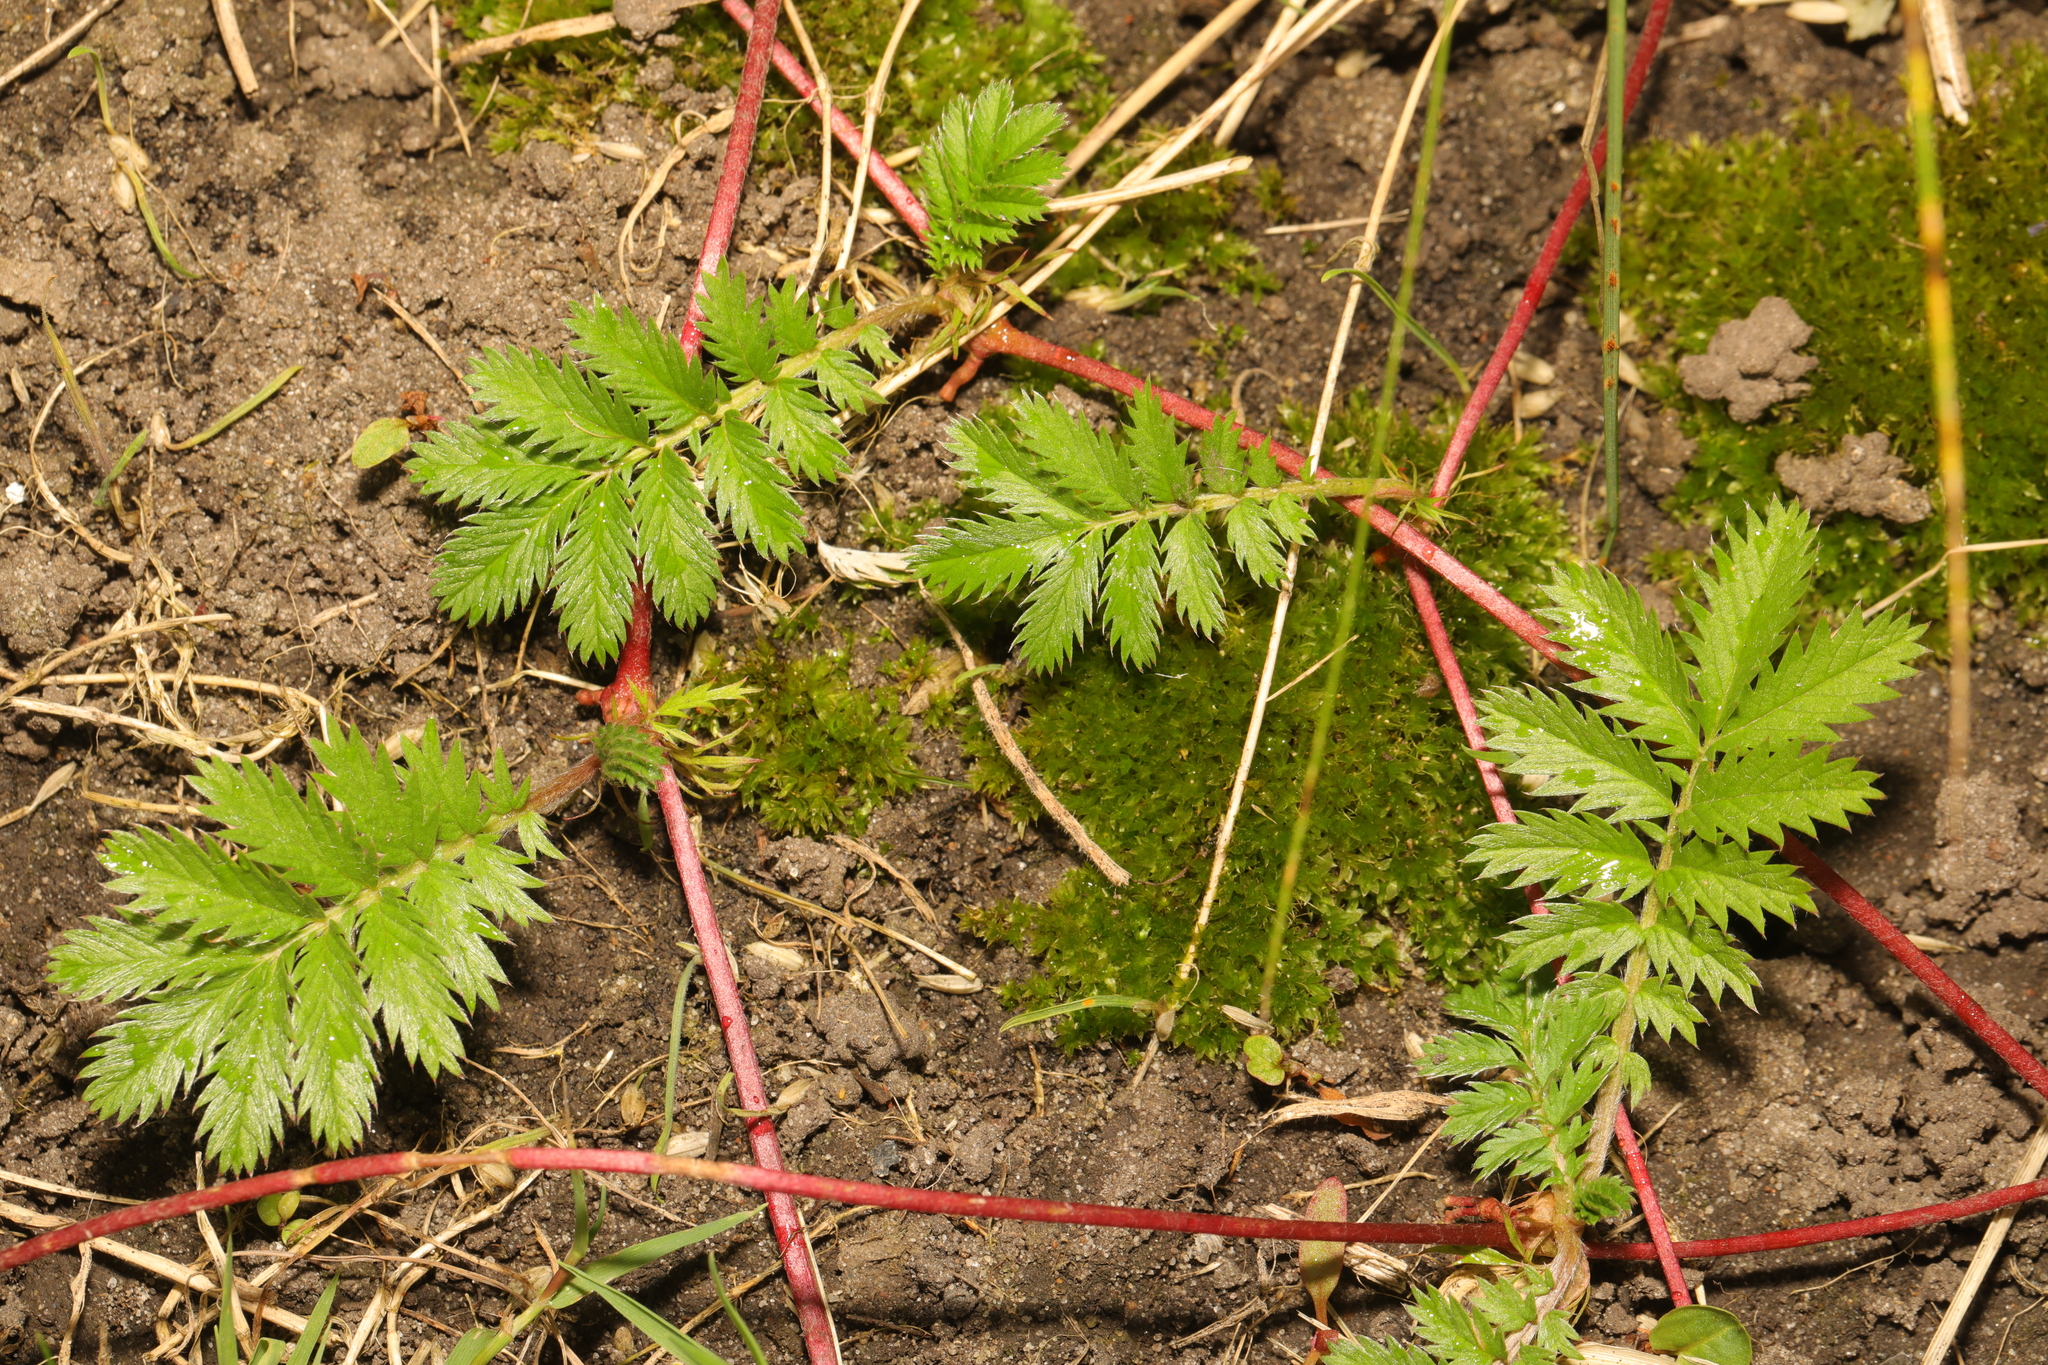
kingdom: Plantae
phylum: Tracheophyta
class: Magnoliopsida
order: Rosales
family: Rosaceae
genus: Argentina
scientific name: Argentina anserina
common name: Common silverweed
